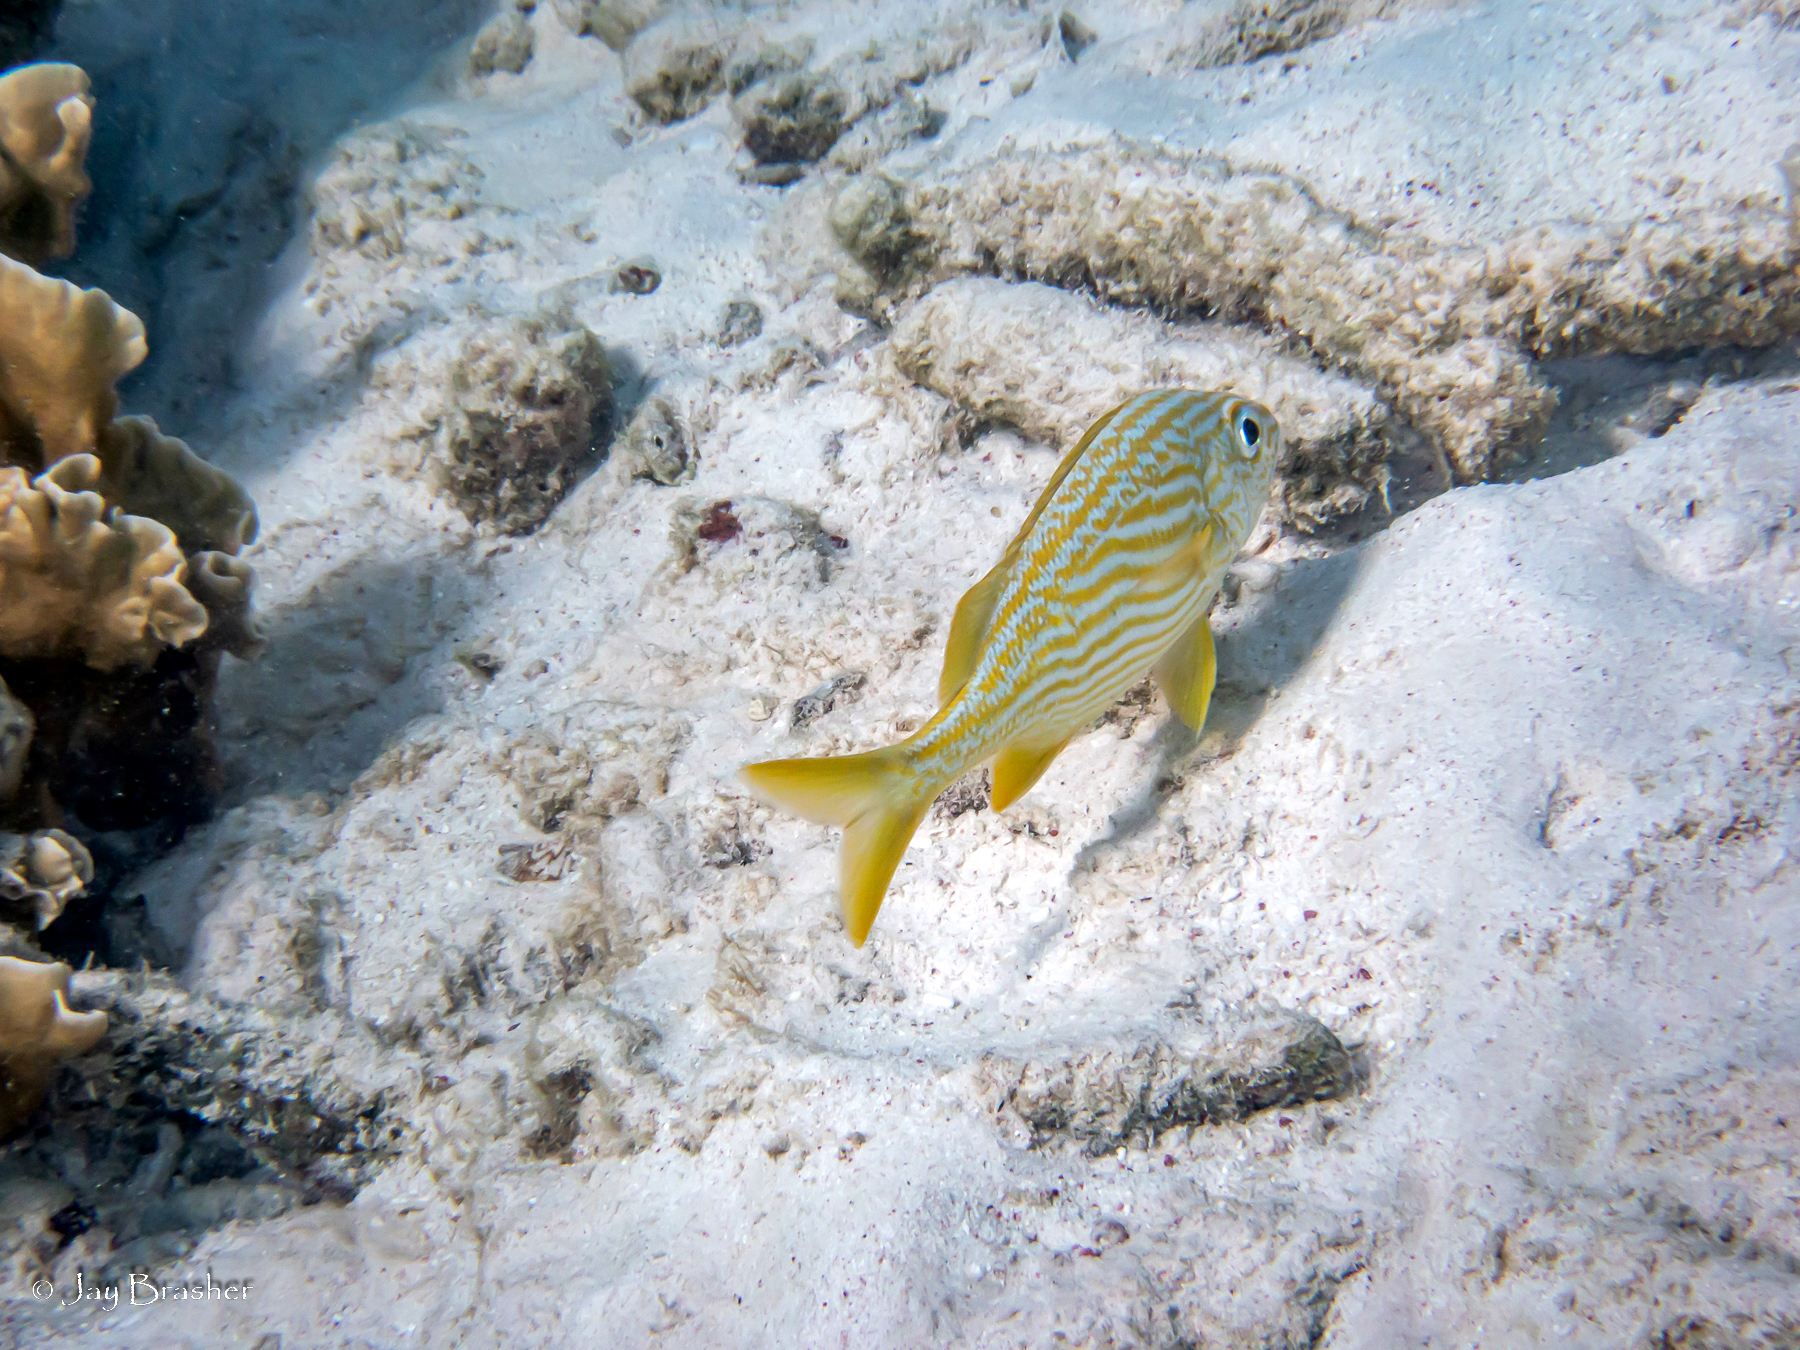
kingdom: Animalia
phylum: Chordata
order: Perciformes
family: Haemulidae
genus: Haemulon
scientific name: Haemulon flavolineatum
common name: French grunt
